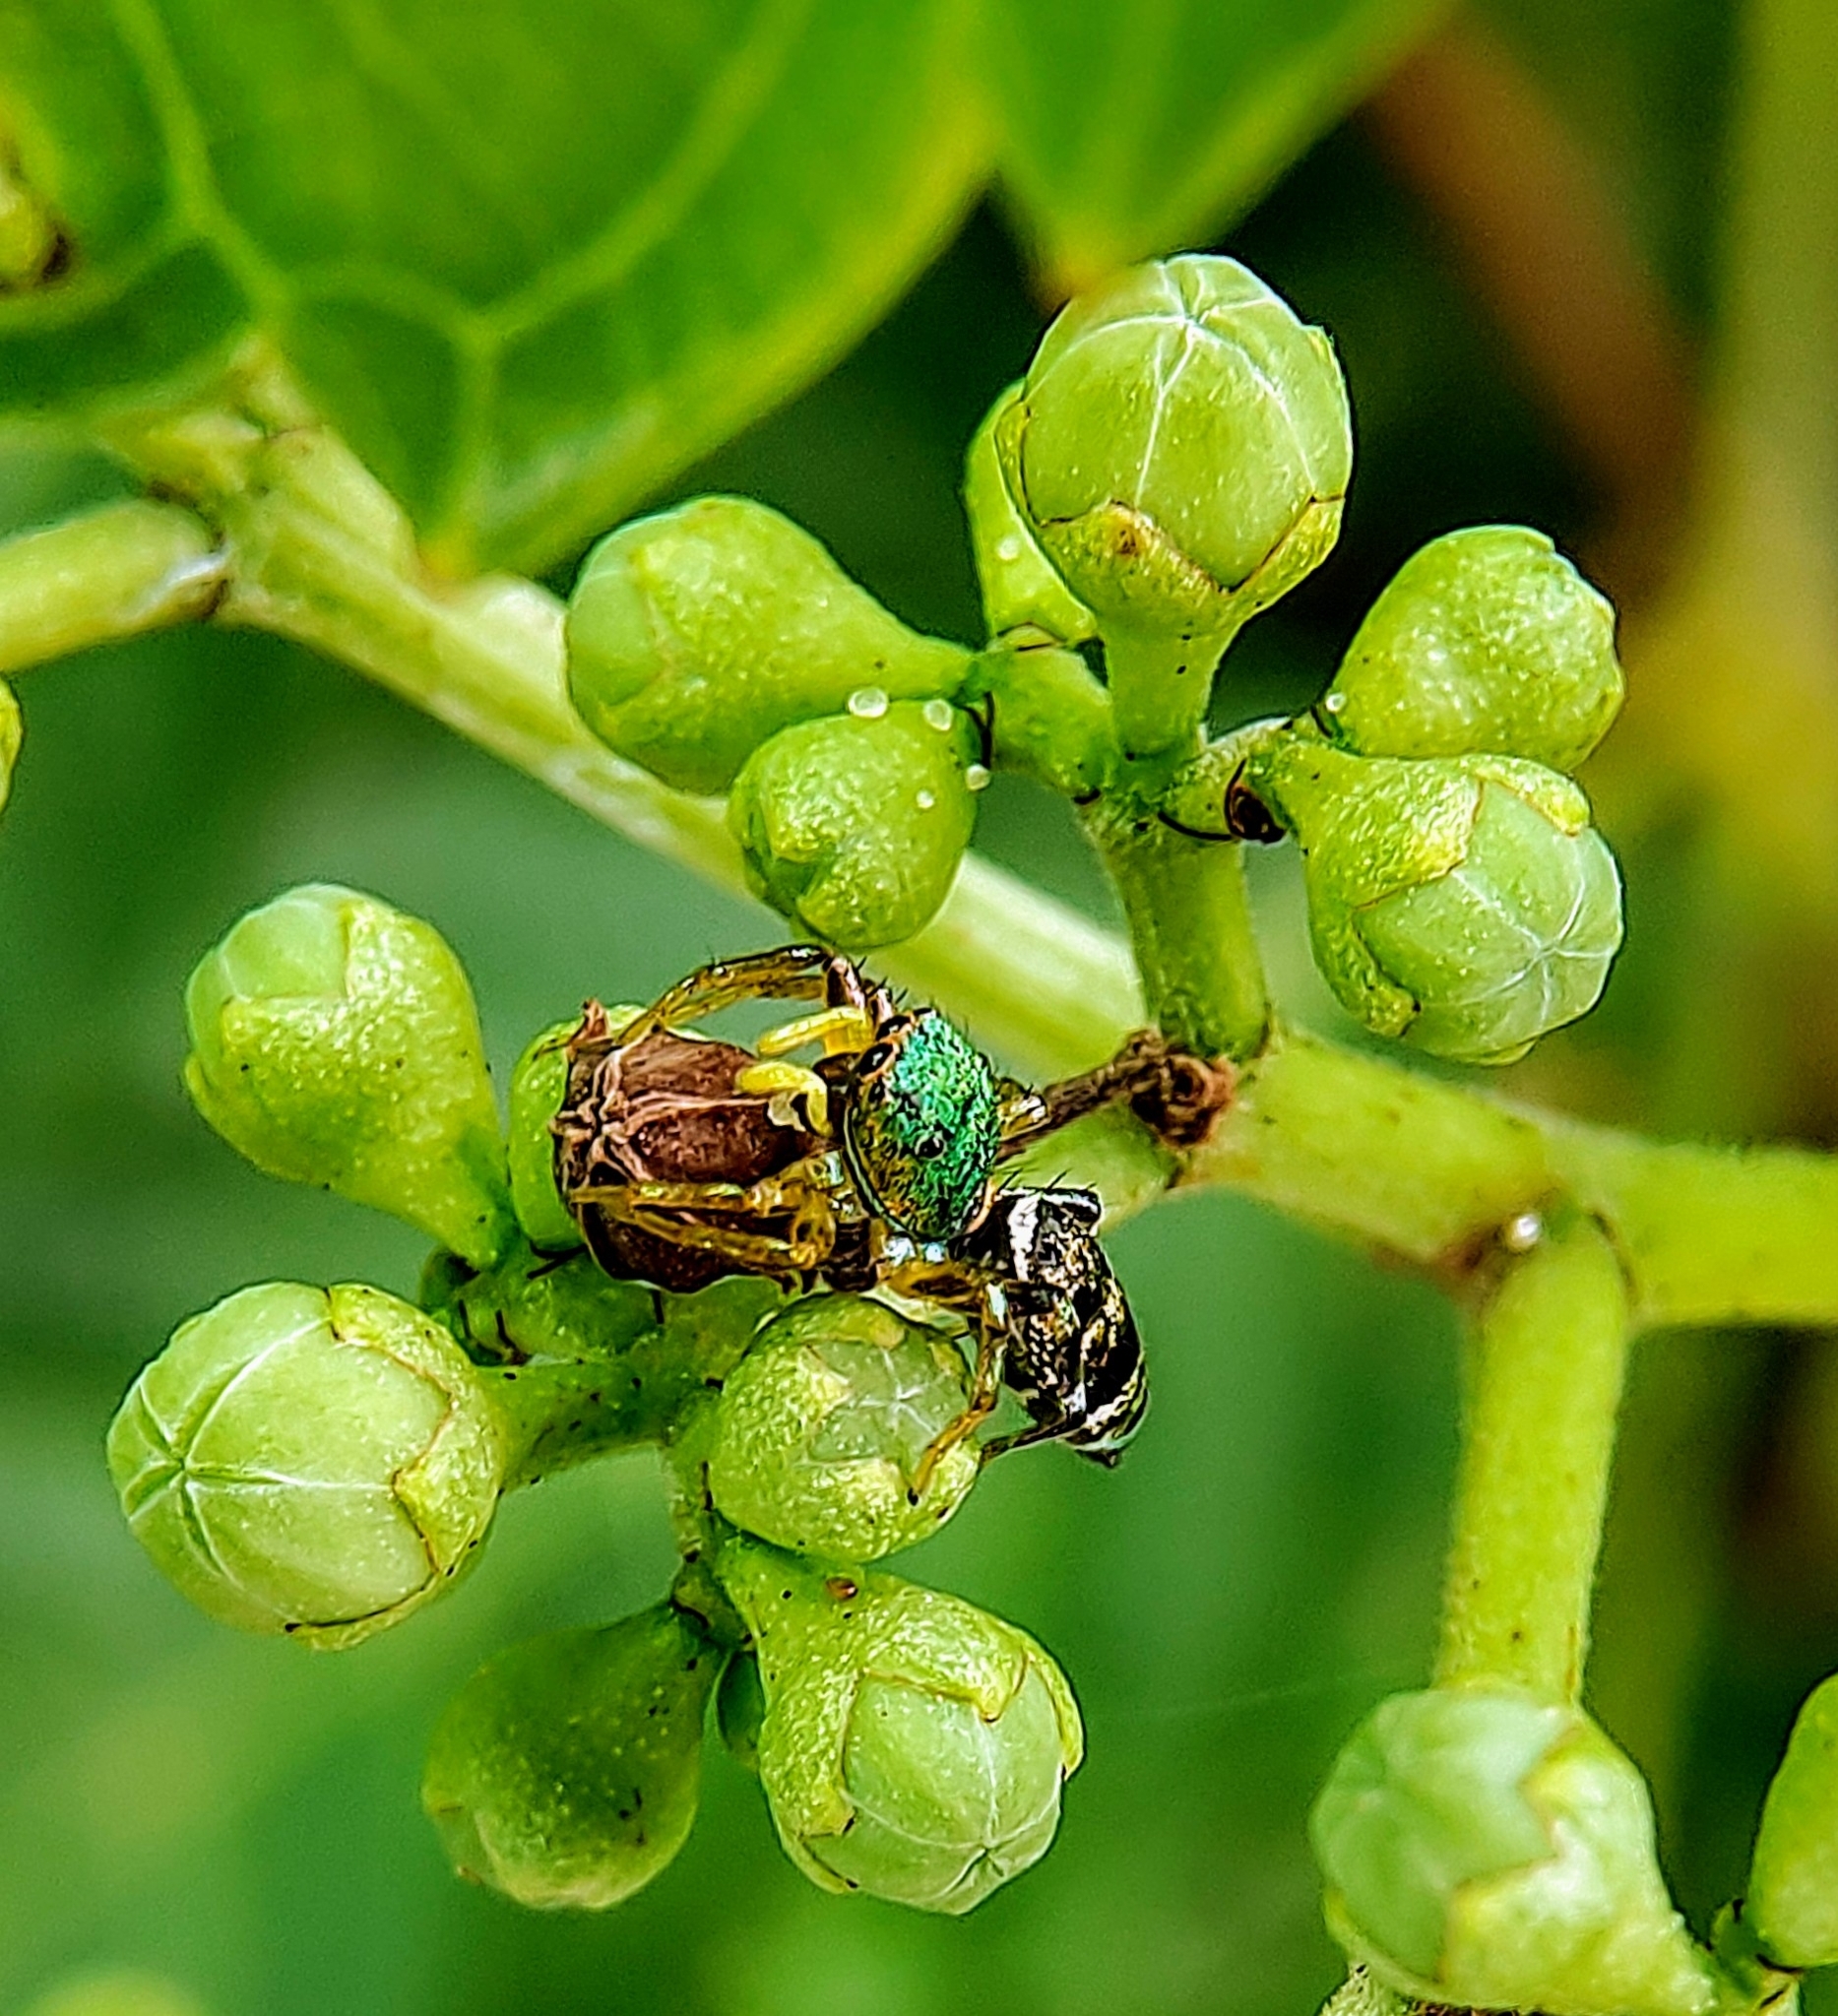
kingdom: Animalia
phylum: Arthropoda
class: Arachnida
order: Araneae
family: Salticidae
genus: Cosmophasis
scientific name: Cosmophasis thalassina
